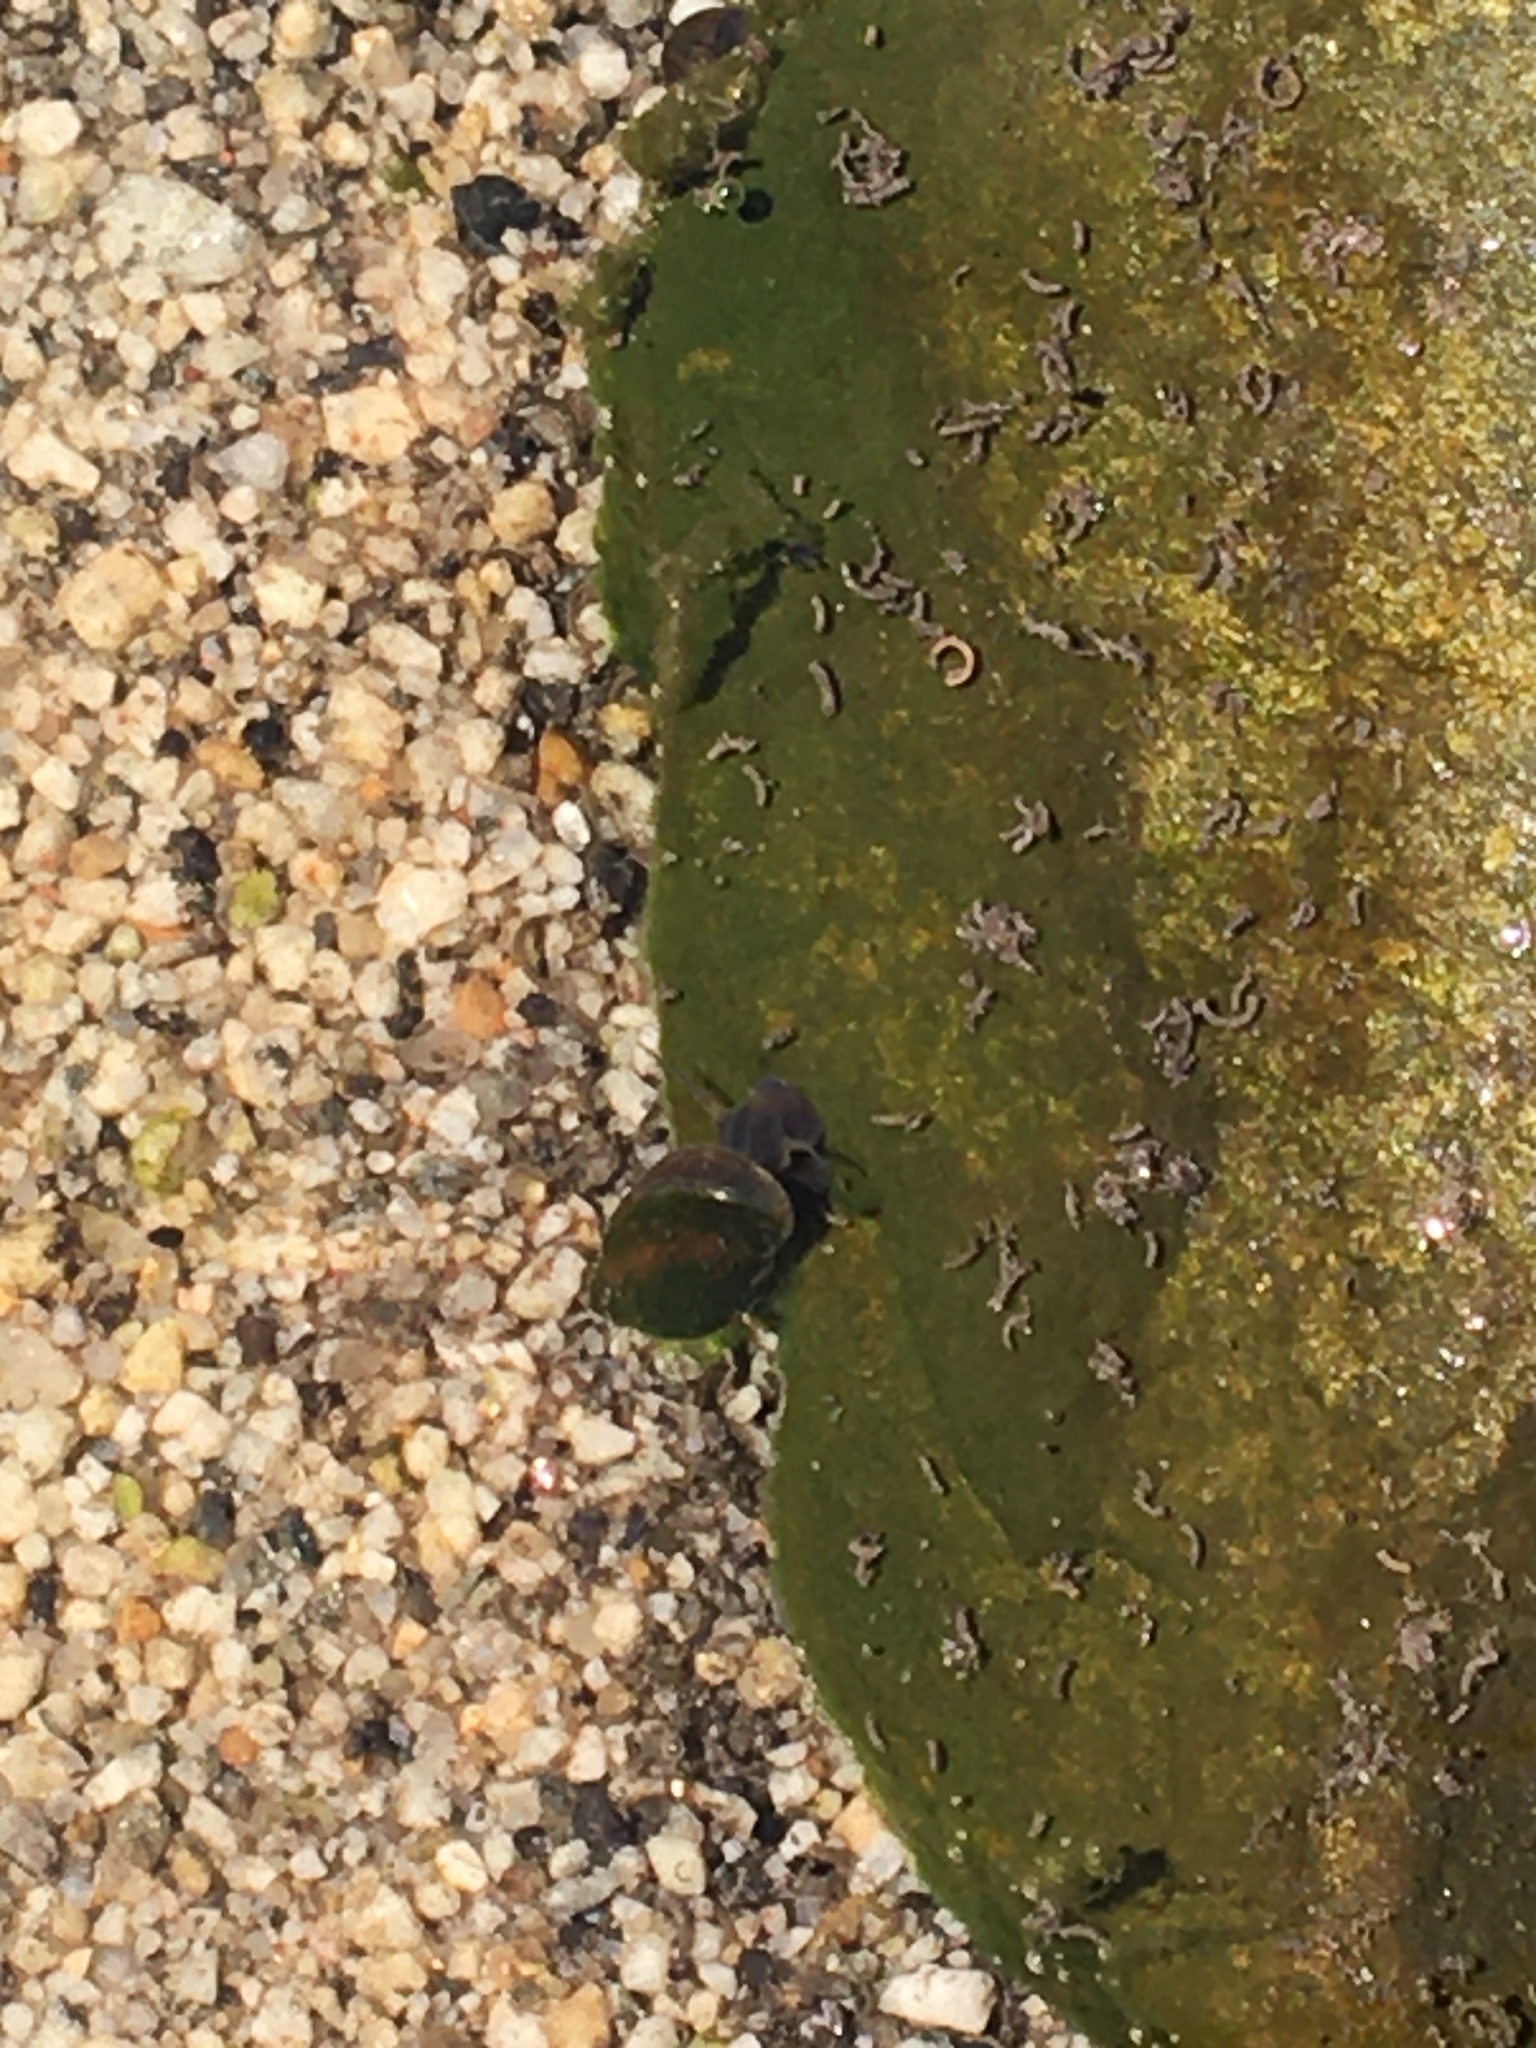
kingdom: Animalia
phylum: Mollusca
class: Gastropoda
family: Physidae
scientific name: Physidae
